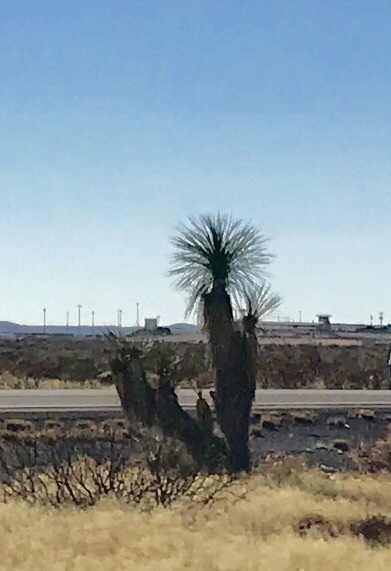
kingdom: Plantae
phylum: Tracheophyta
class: Liliopsida
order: Asparagales
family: Asparagaceae
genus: Yucca
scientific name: Yucca elata
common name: Palmella
